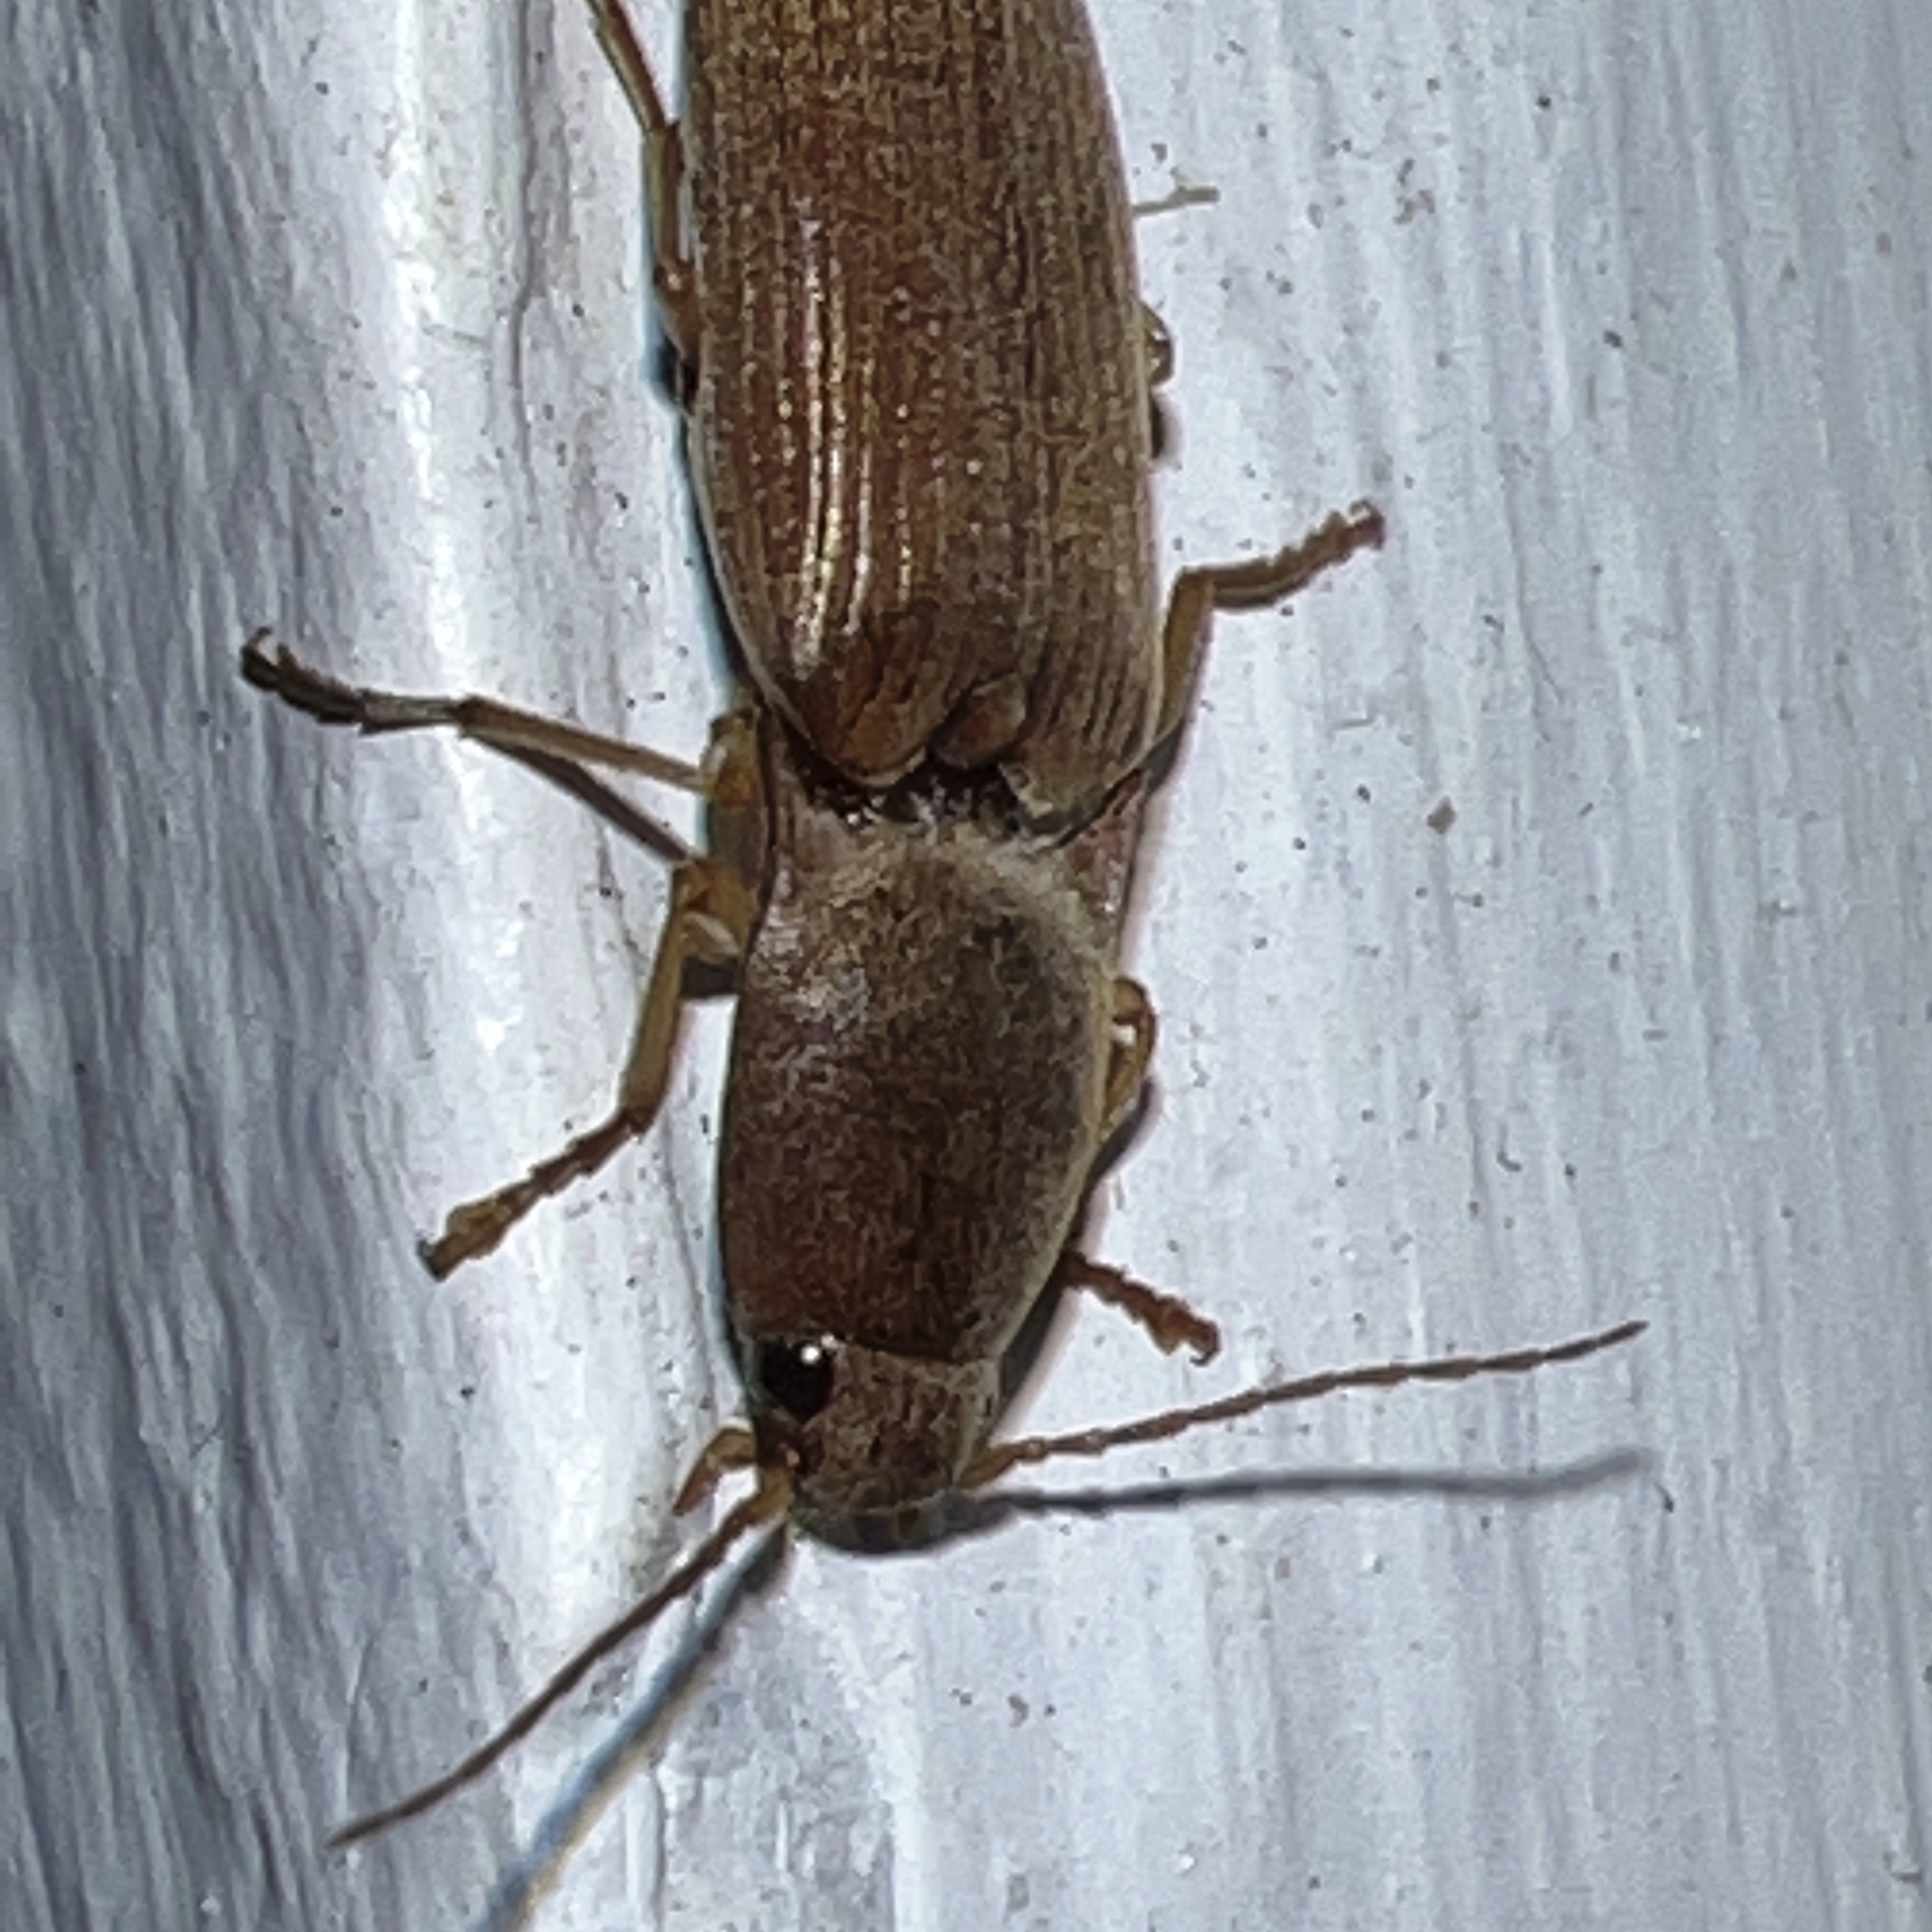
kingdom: Animalia
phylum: Arthropoda
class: Insecta
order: Coleoptera
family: Elateridae
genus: Monocrepidius
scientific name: Monocrepidius lividus
